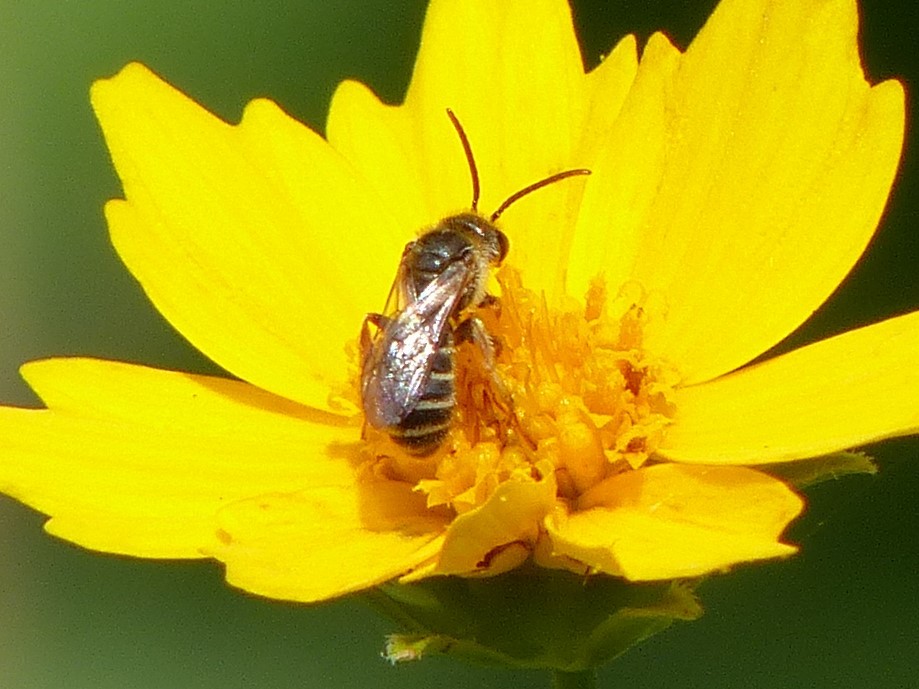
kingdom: Animalia
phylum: Arthropoda
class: Insecta
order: Hymenoptera
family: Halictidae
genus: Halictus
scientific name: Halictus ligatus
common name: Ligated furrow bee
